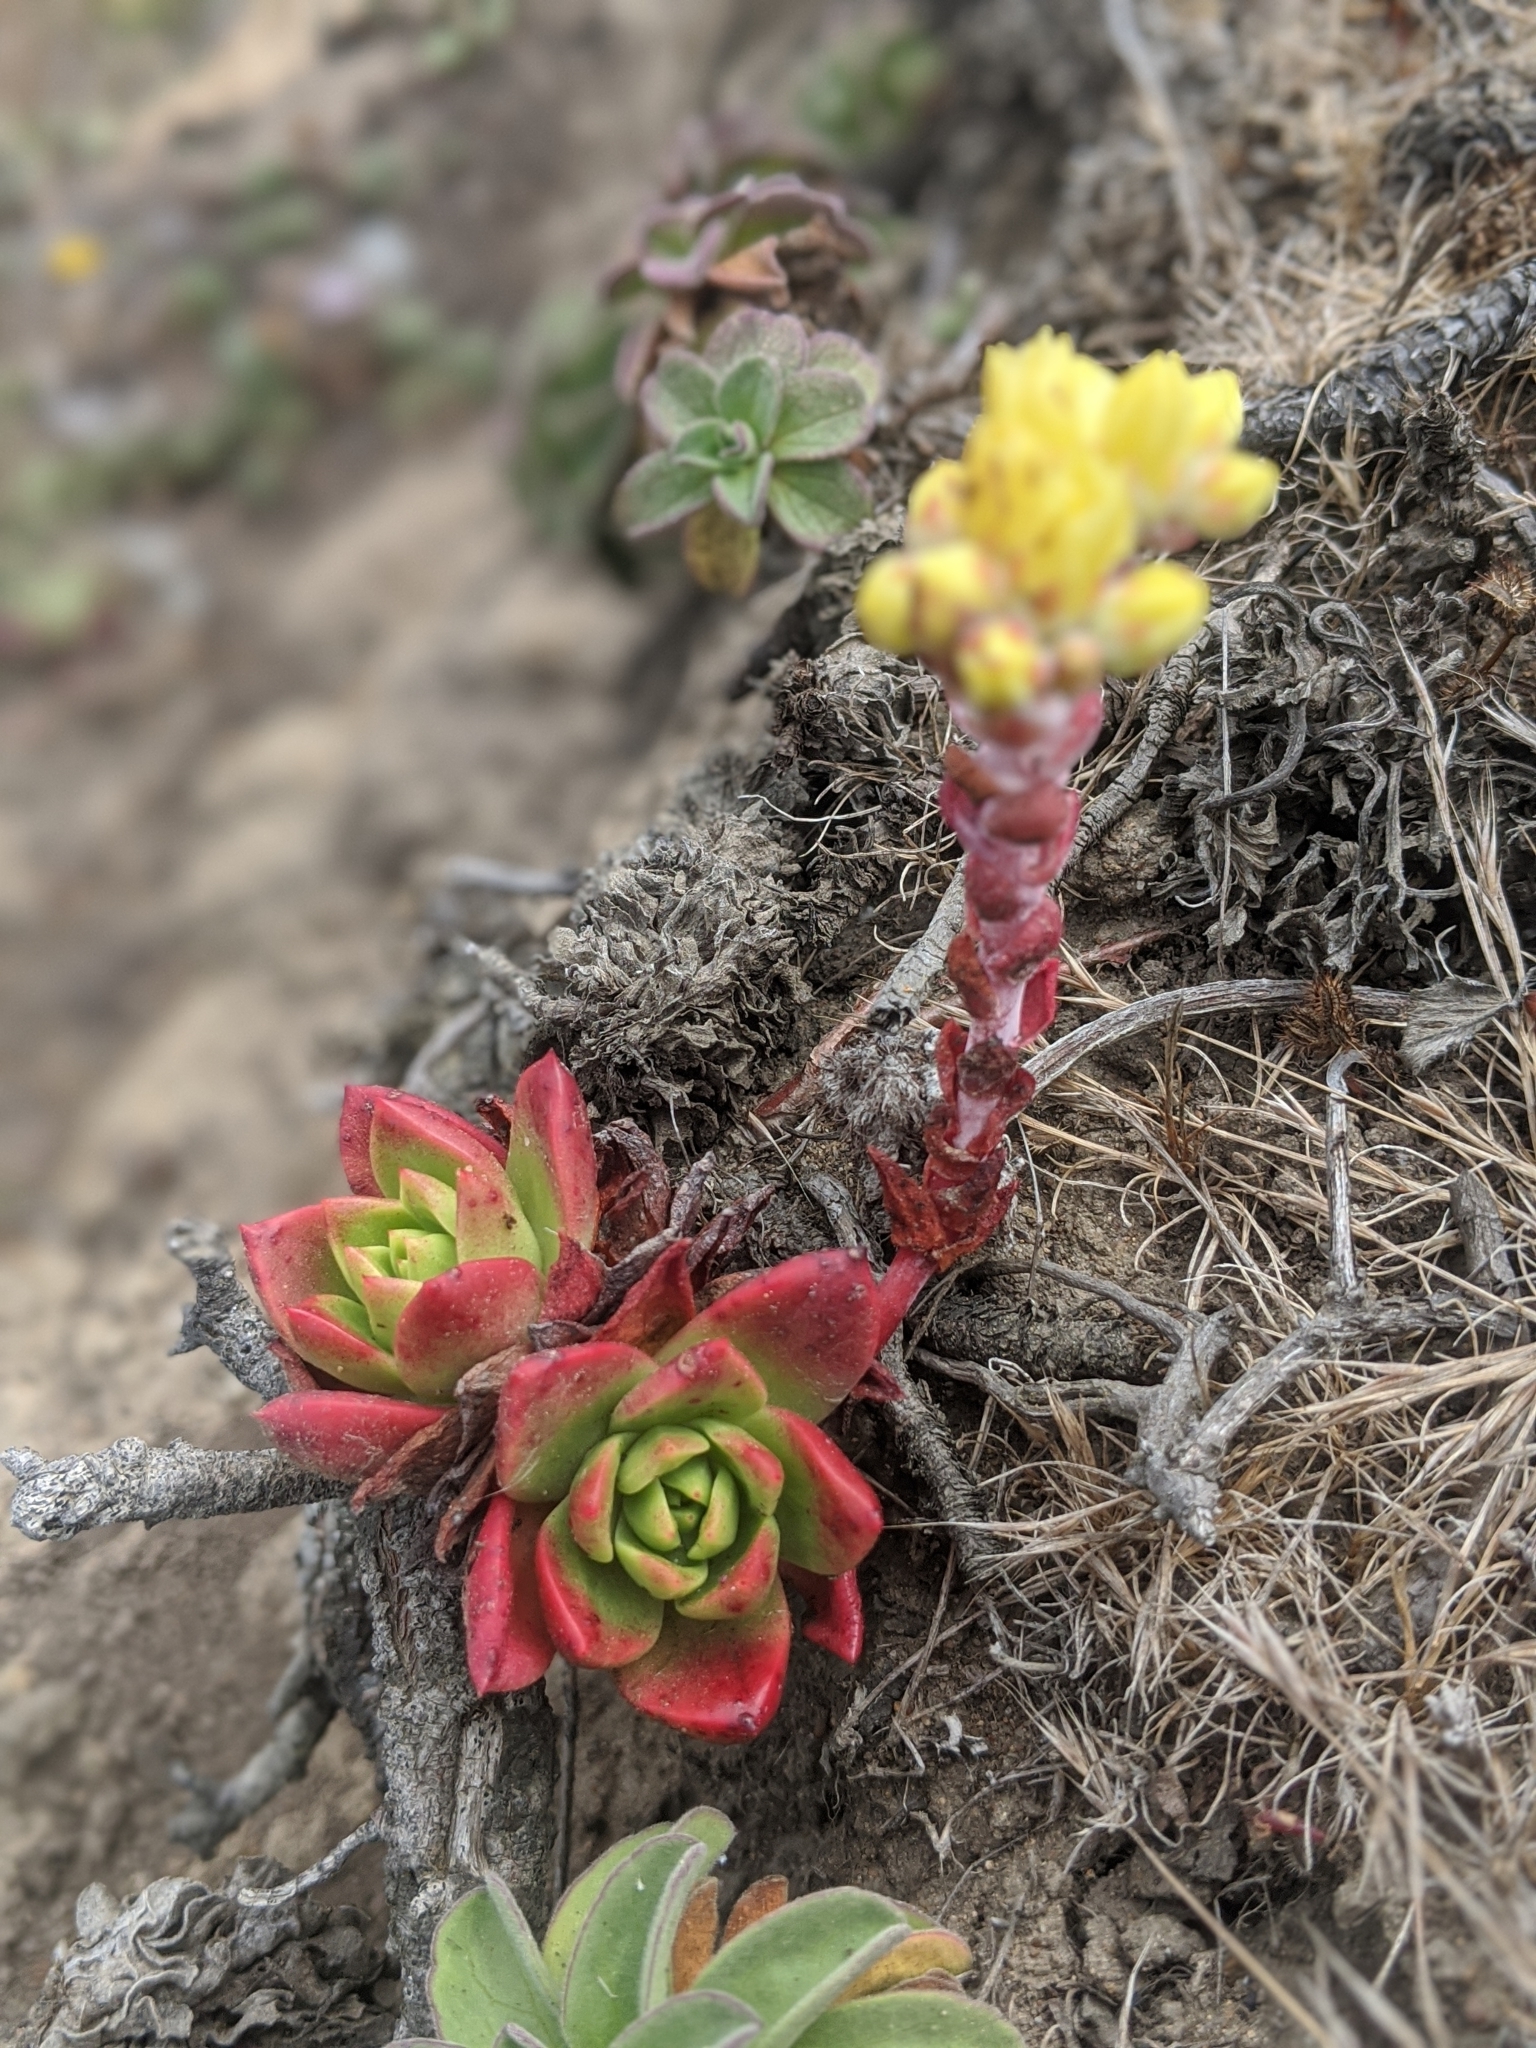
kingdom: Plantae
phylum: Tracheophyta
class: Magnoliopsida
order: Saxifragales
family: Crassulaceae
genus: Dudleya
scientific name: Dudleya farinosa
